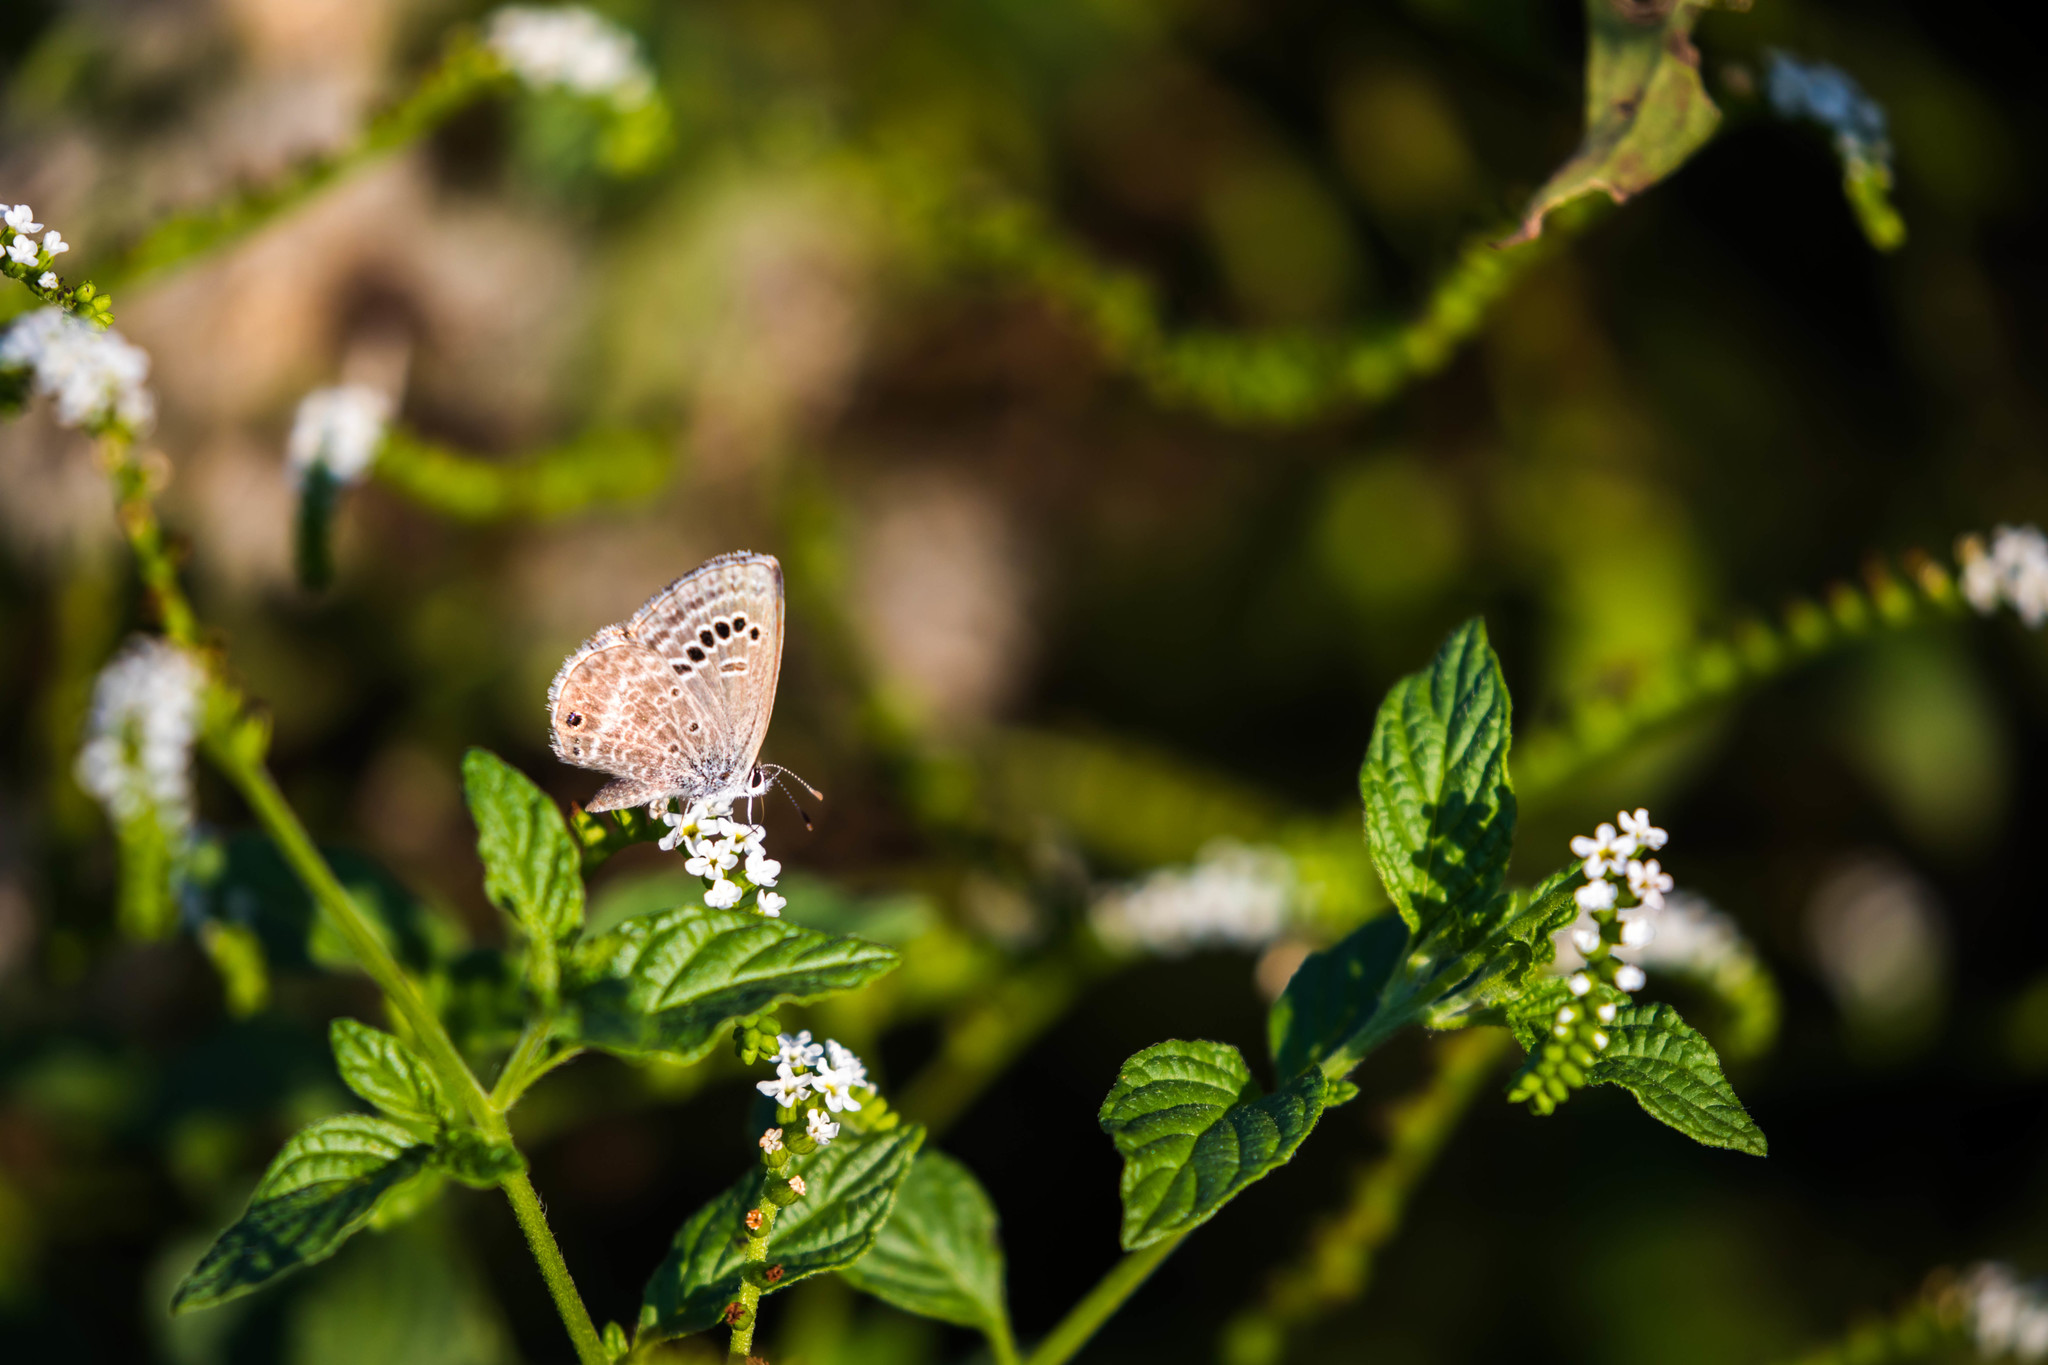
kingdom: Animalia
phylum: Arthropoda
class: Insecta
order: Lepidoptera
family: Lycaenidae
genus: Echinargus
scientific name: Echinargus isola
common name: Reakirt's blue
